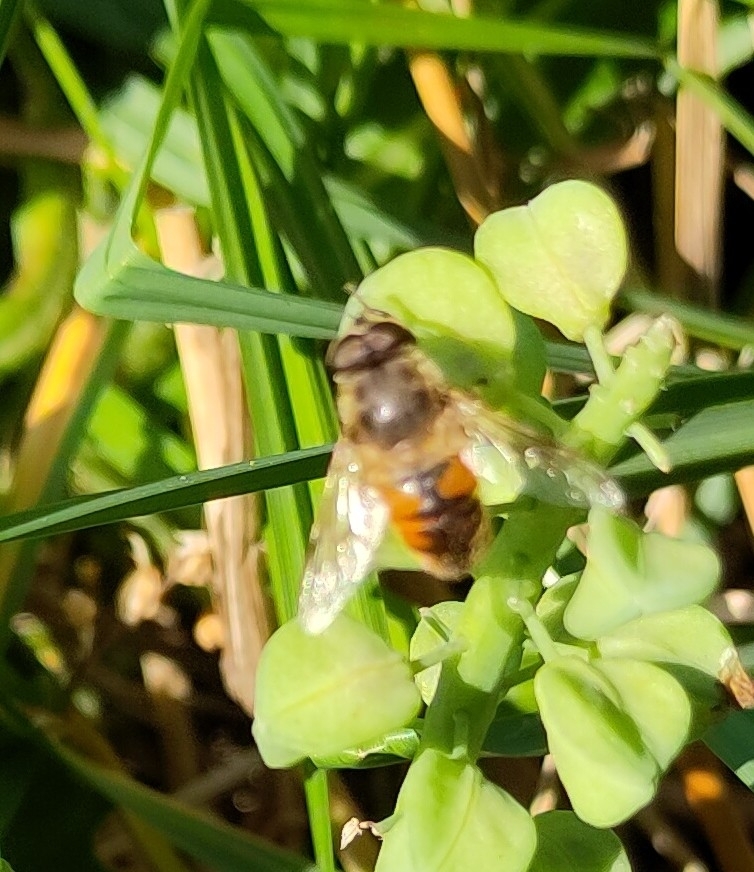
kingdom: Animalia
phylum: Arthropoda
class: Insecta
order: Diptera
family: Syrphidae
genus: Eristalis
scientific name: Eristalis tenax
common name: Drone fly
